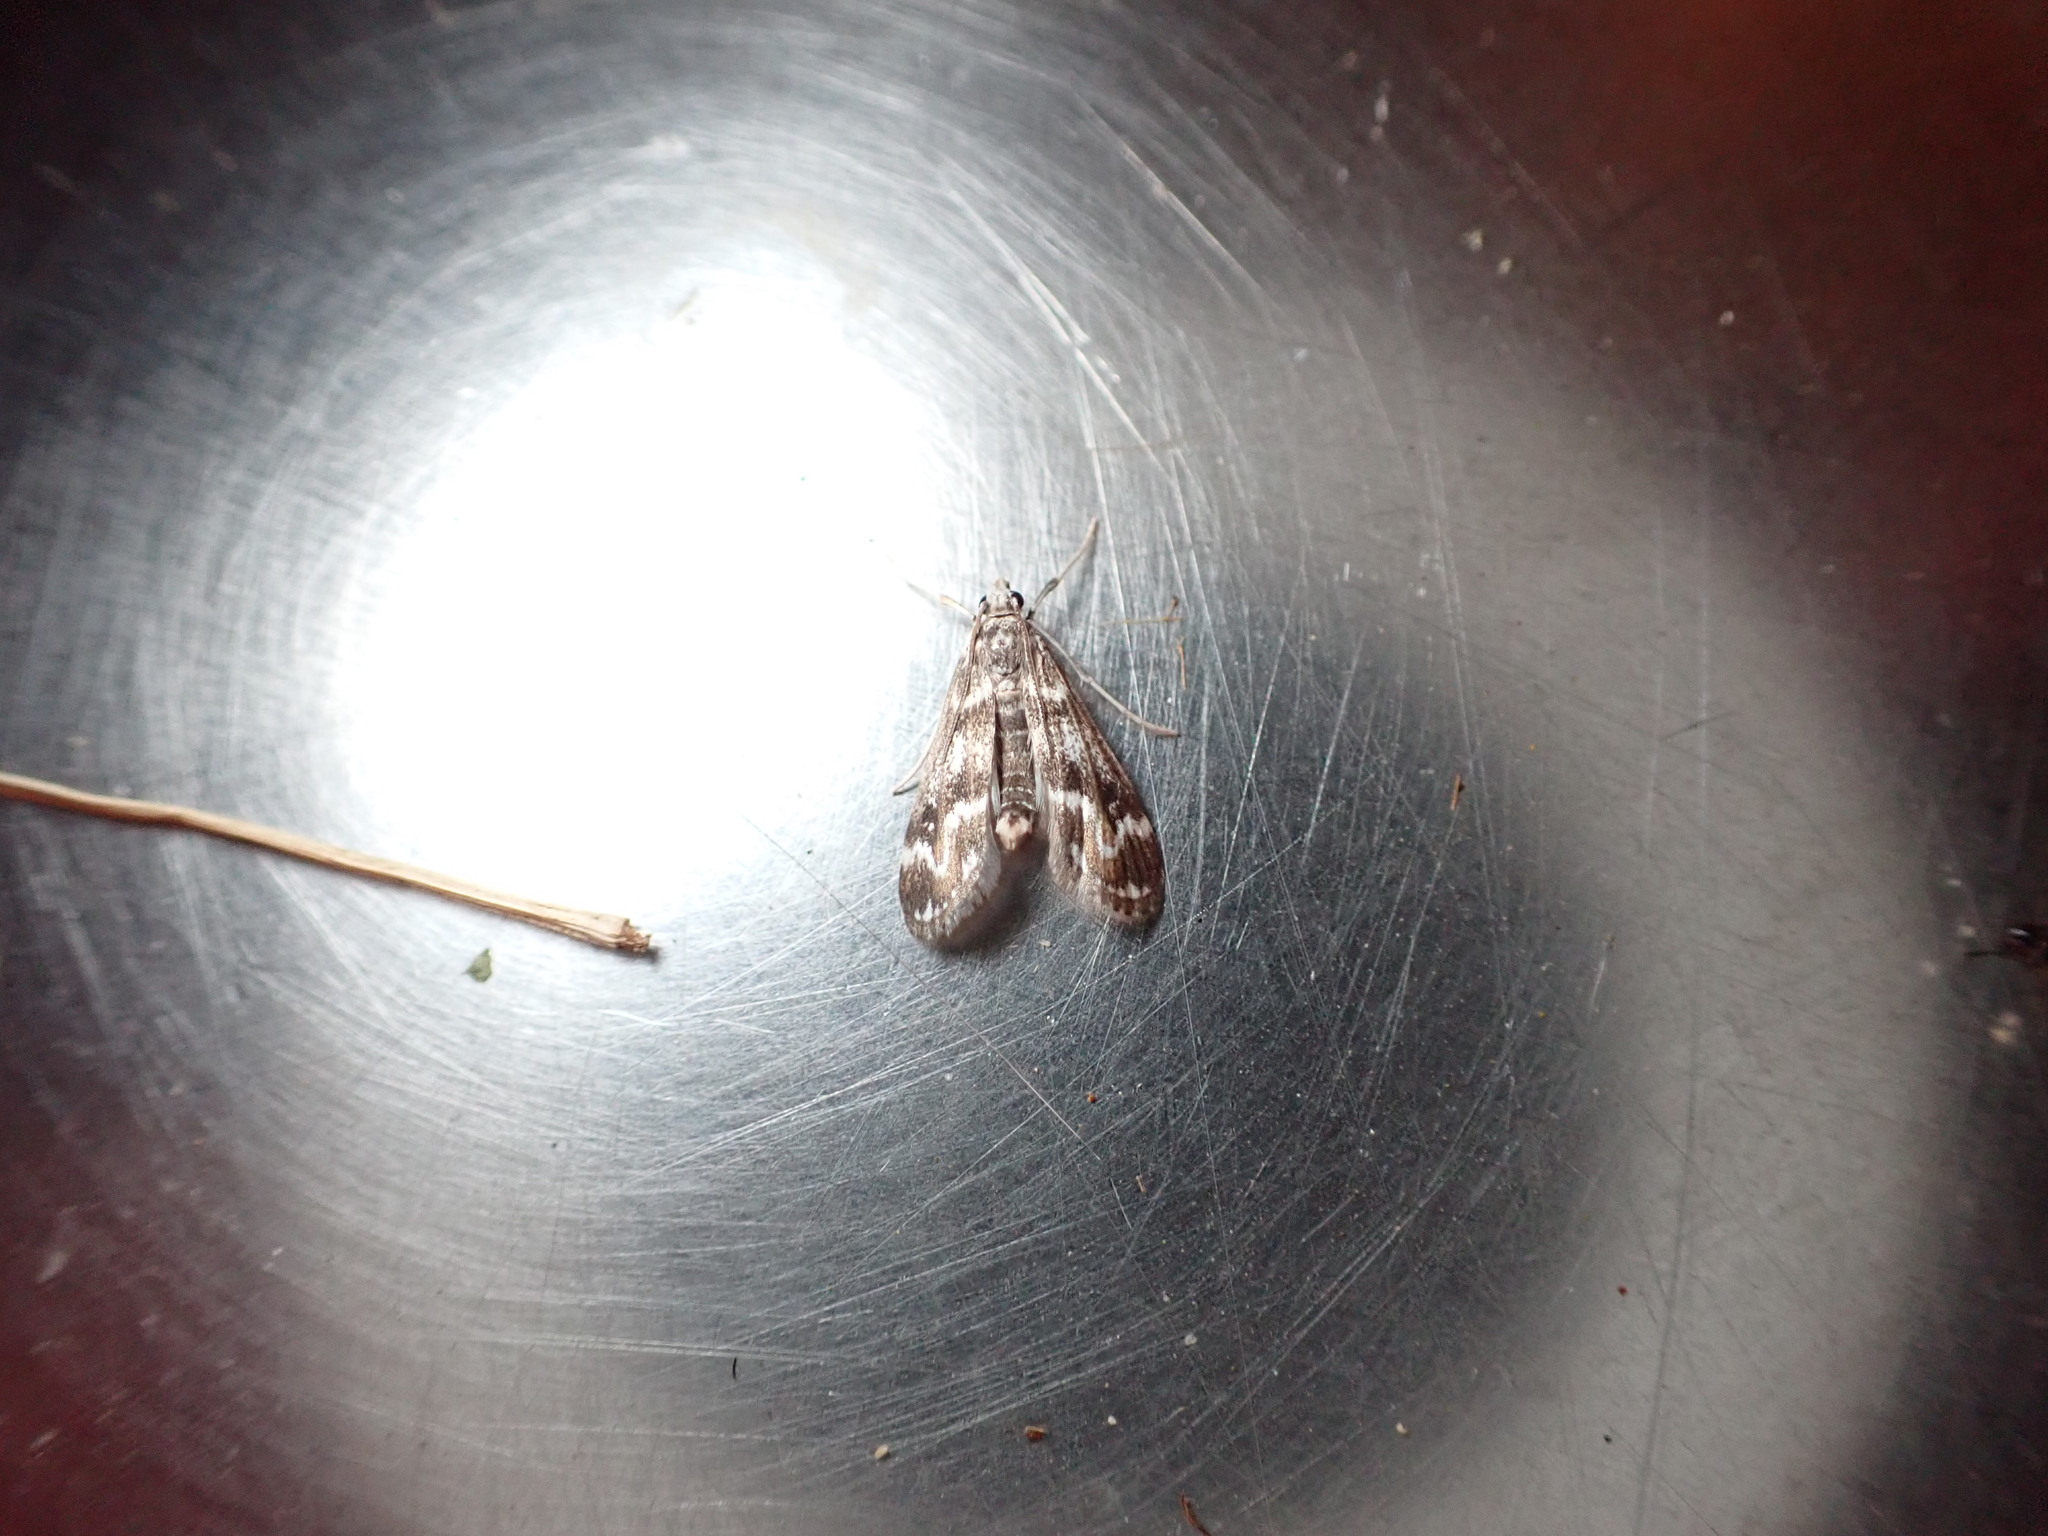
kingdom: Animalia
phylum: Arthropoda
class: Insecta
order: Lepidoptera
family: Crambidae
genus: Hygraula
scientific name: Hygraula nitens
